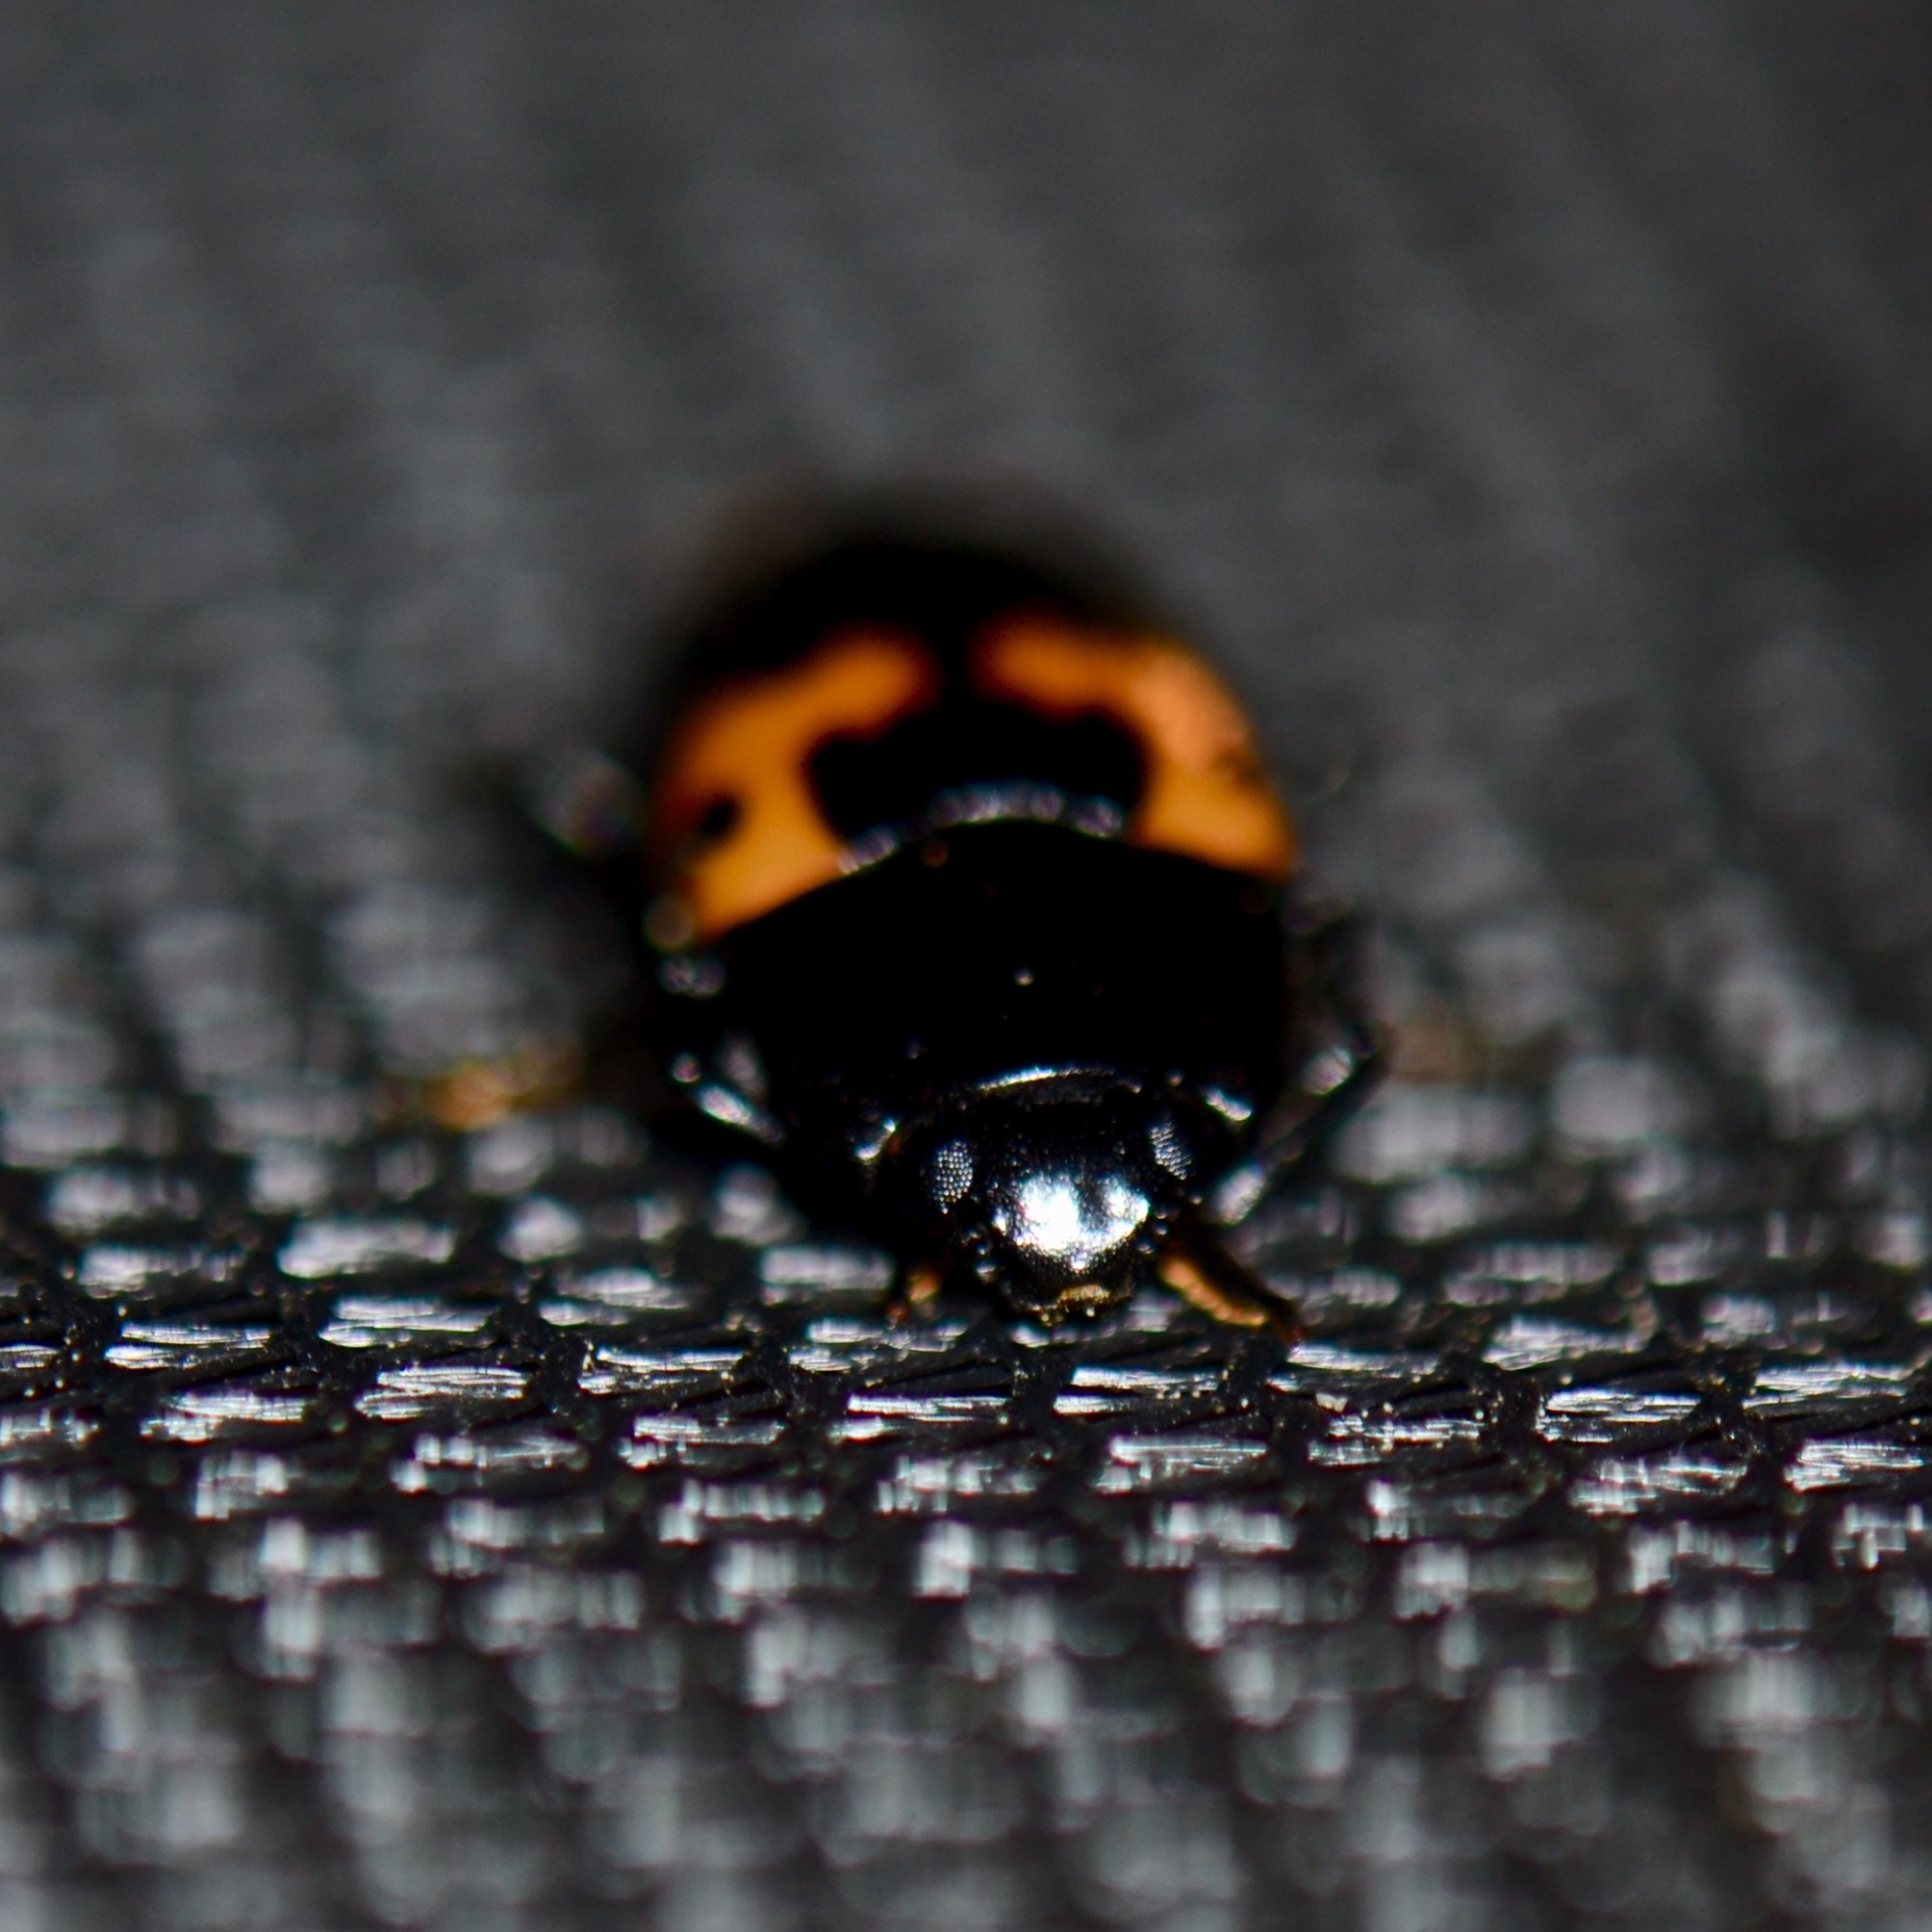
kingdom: Animalia
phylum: Arthropoda
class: Insecta
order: Coleoptera
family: Erotylidae
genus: Megalodacne
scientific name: Megalodacne fasciata
